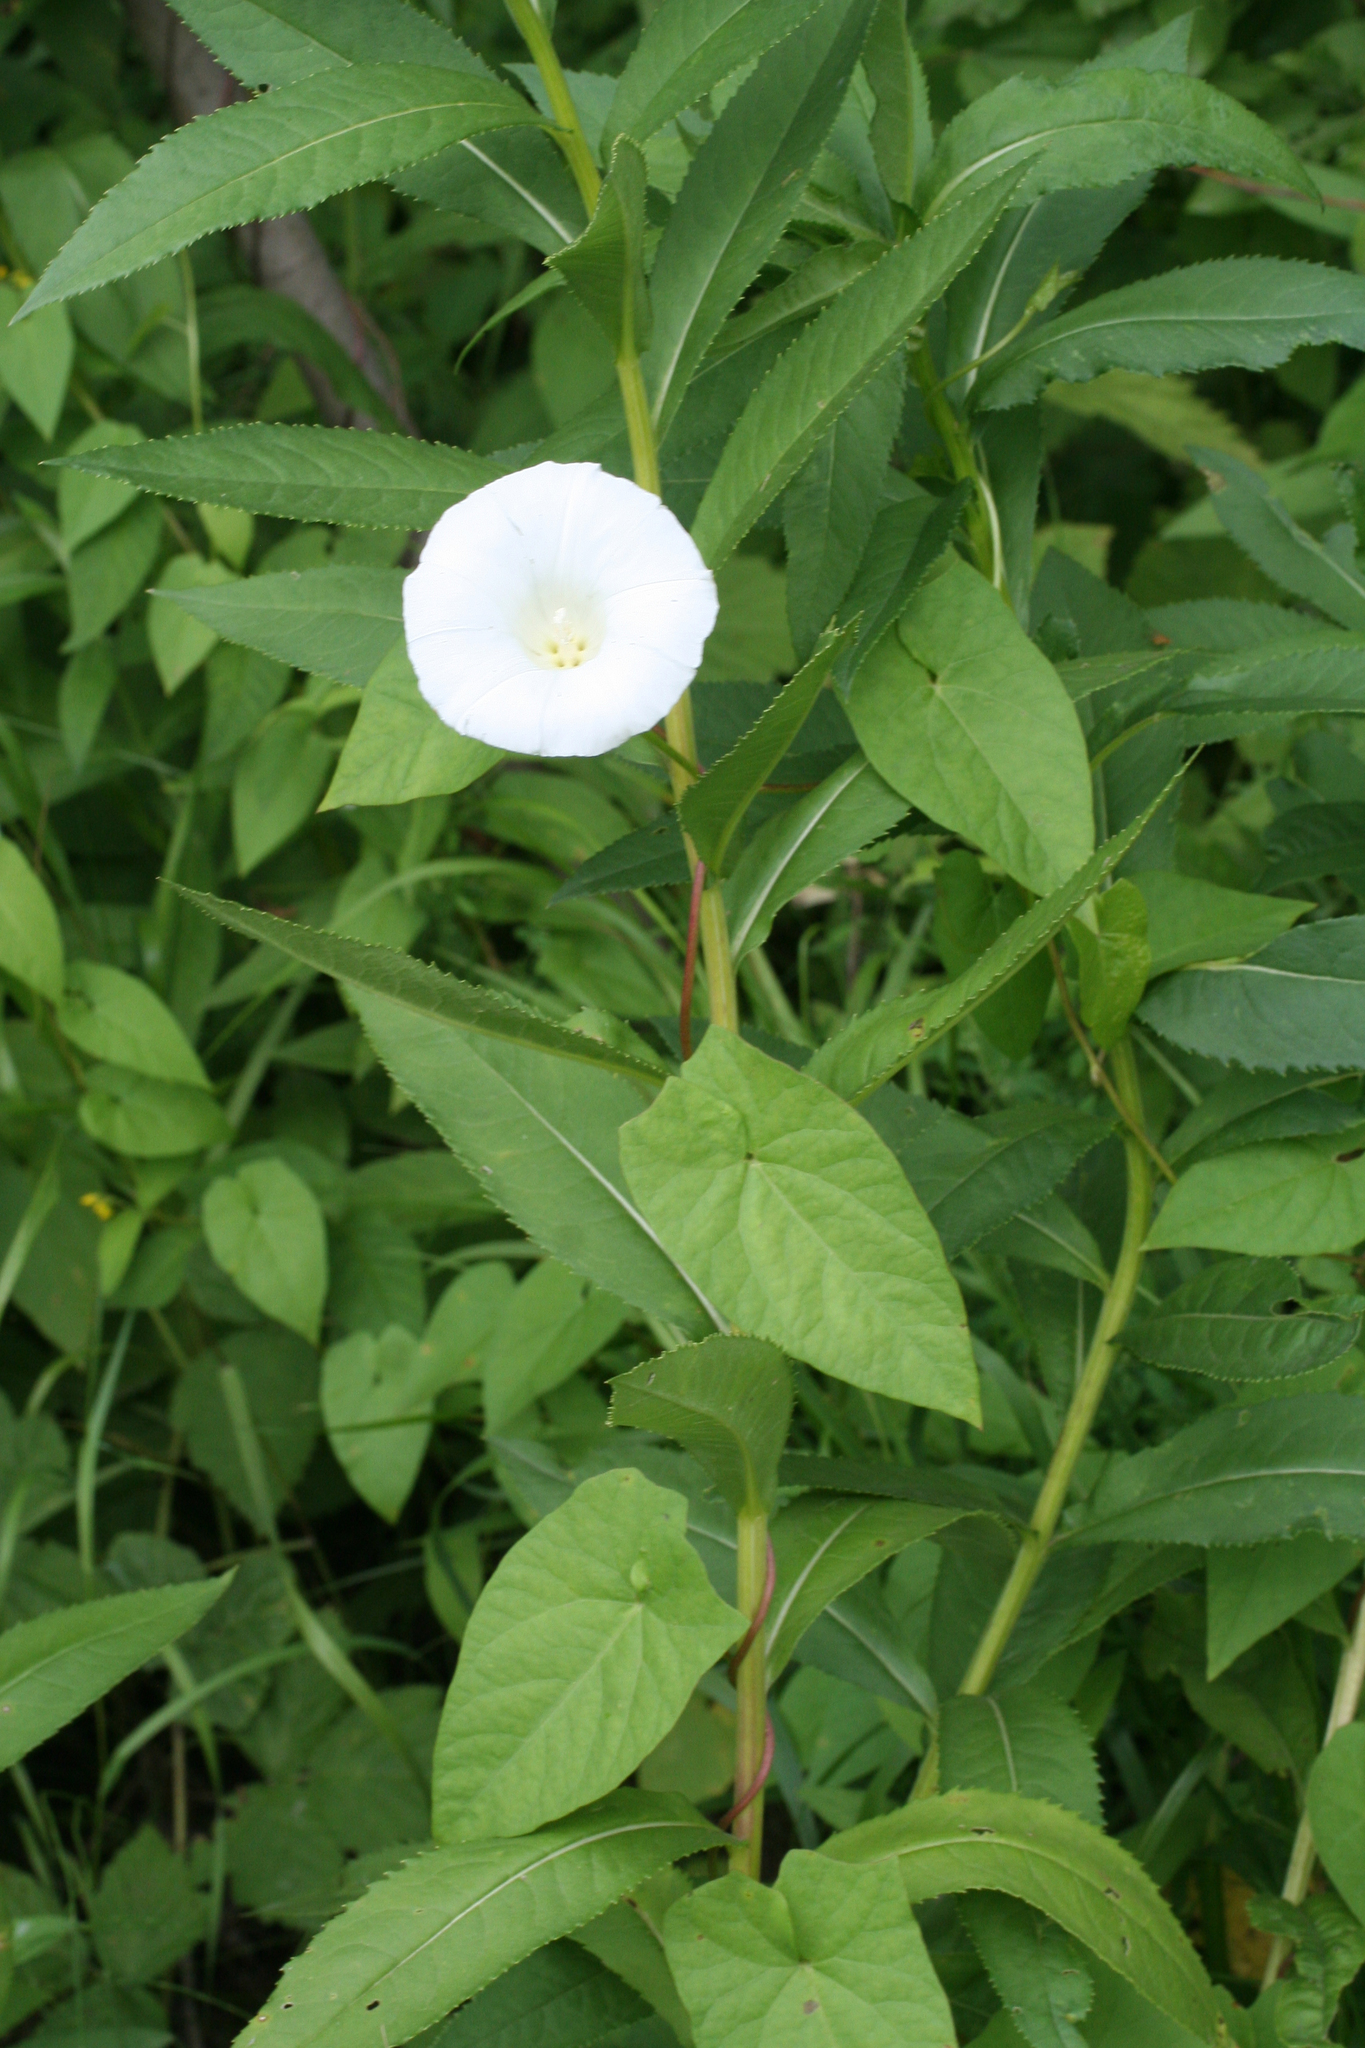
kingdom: Plantae
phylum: Tracheophyta
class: Magnoliopsida
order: Solanales
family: Convolvulaceae
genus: Calystegia
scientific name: Calystegia sepium
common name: Hedge bindweed
